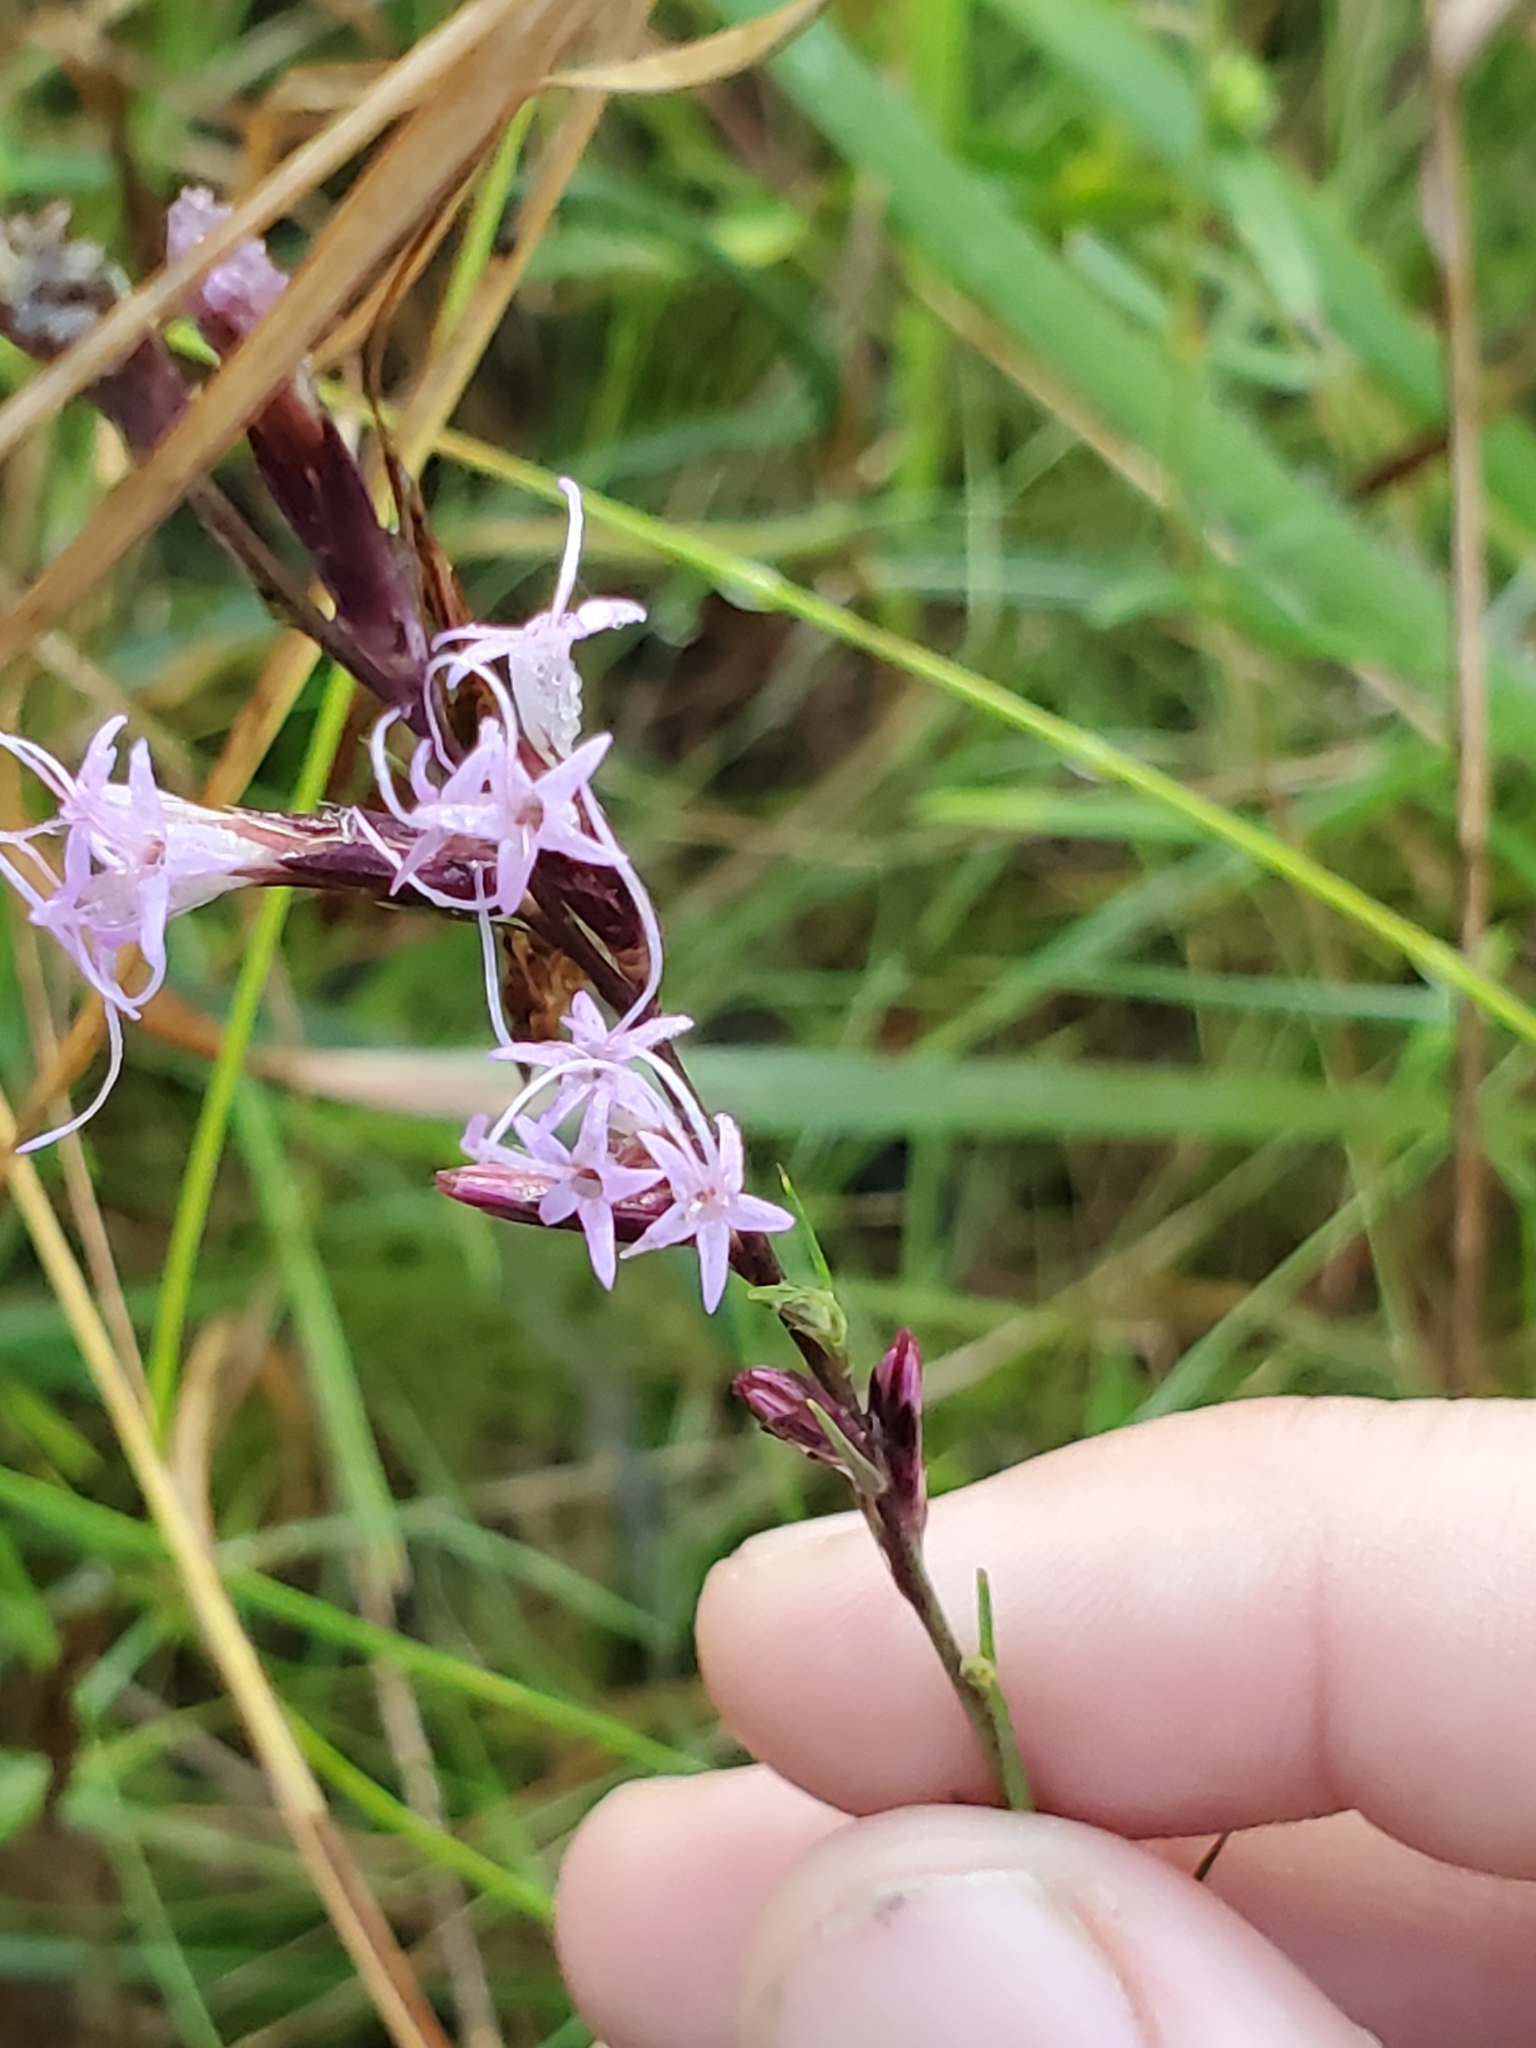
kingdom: Plantae
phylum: Tracheophyta
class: Magnoliopsida
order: Asterales
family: Asteraceae
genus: Liatris
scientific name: Liatris acidota
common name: Gulf coast gayfeather
